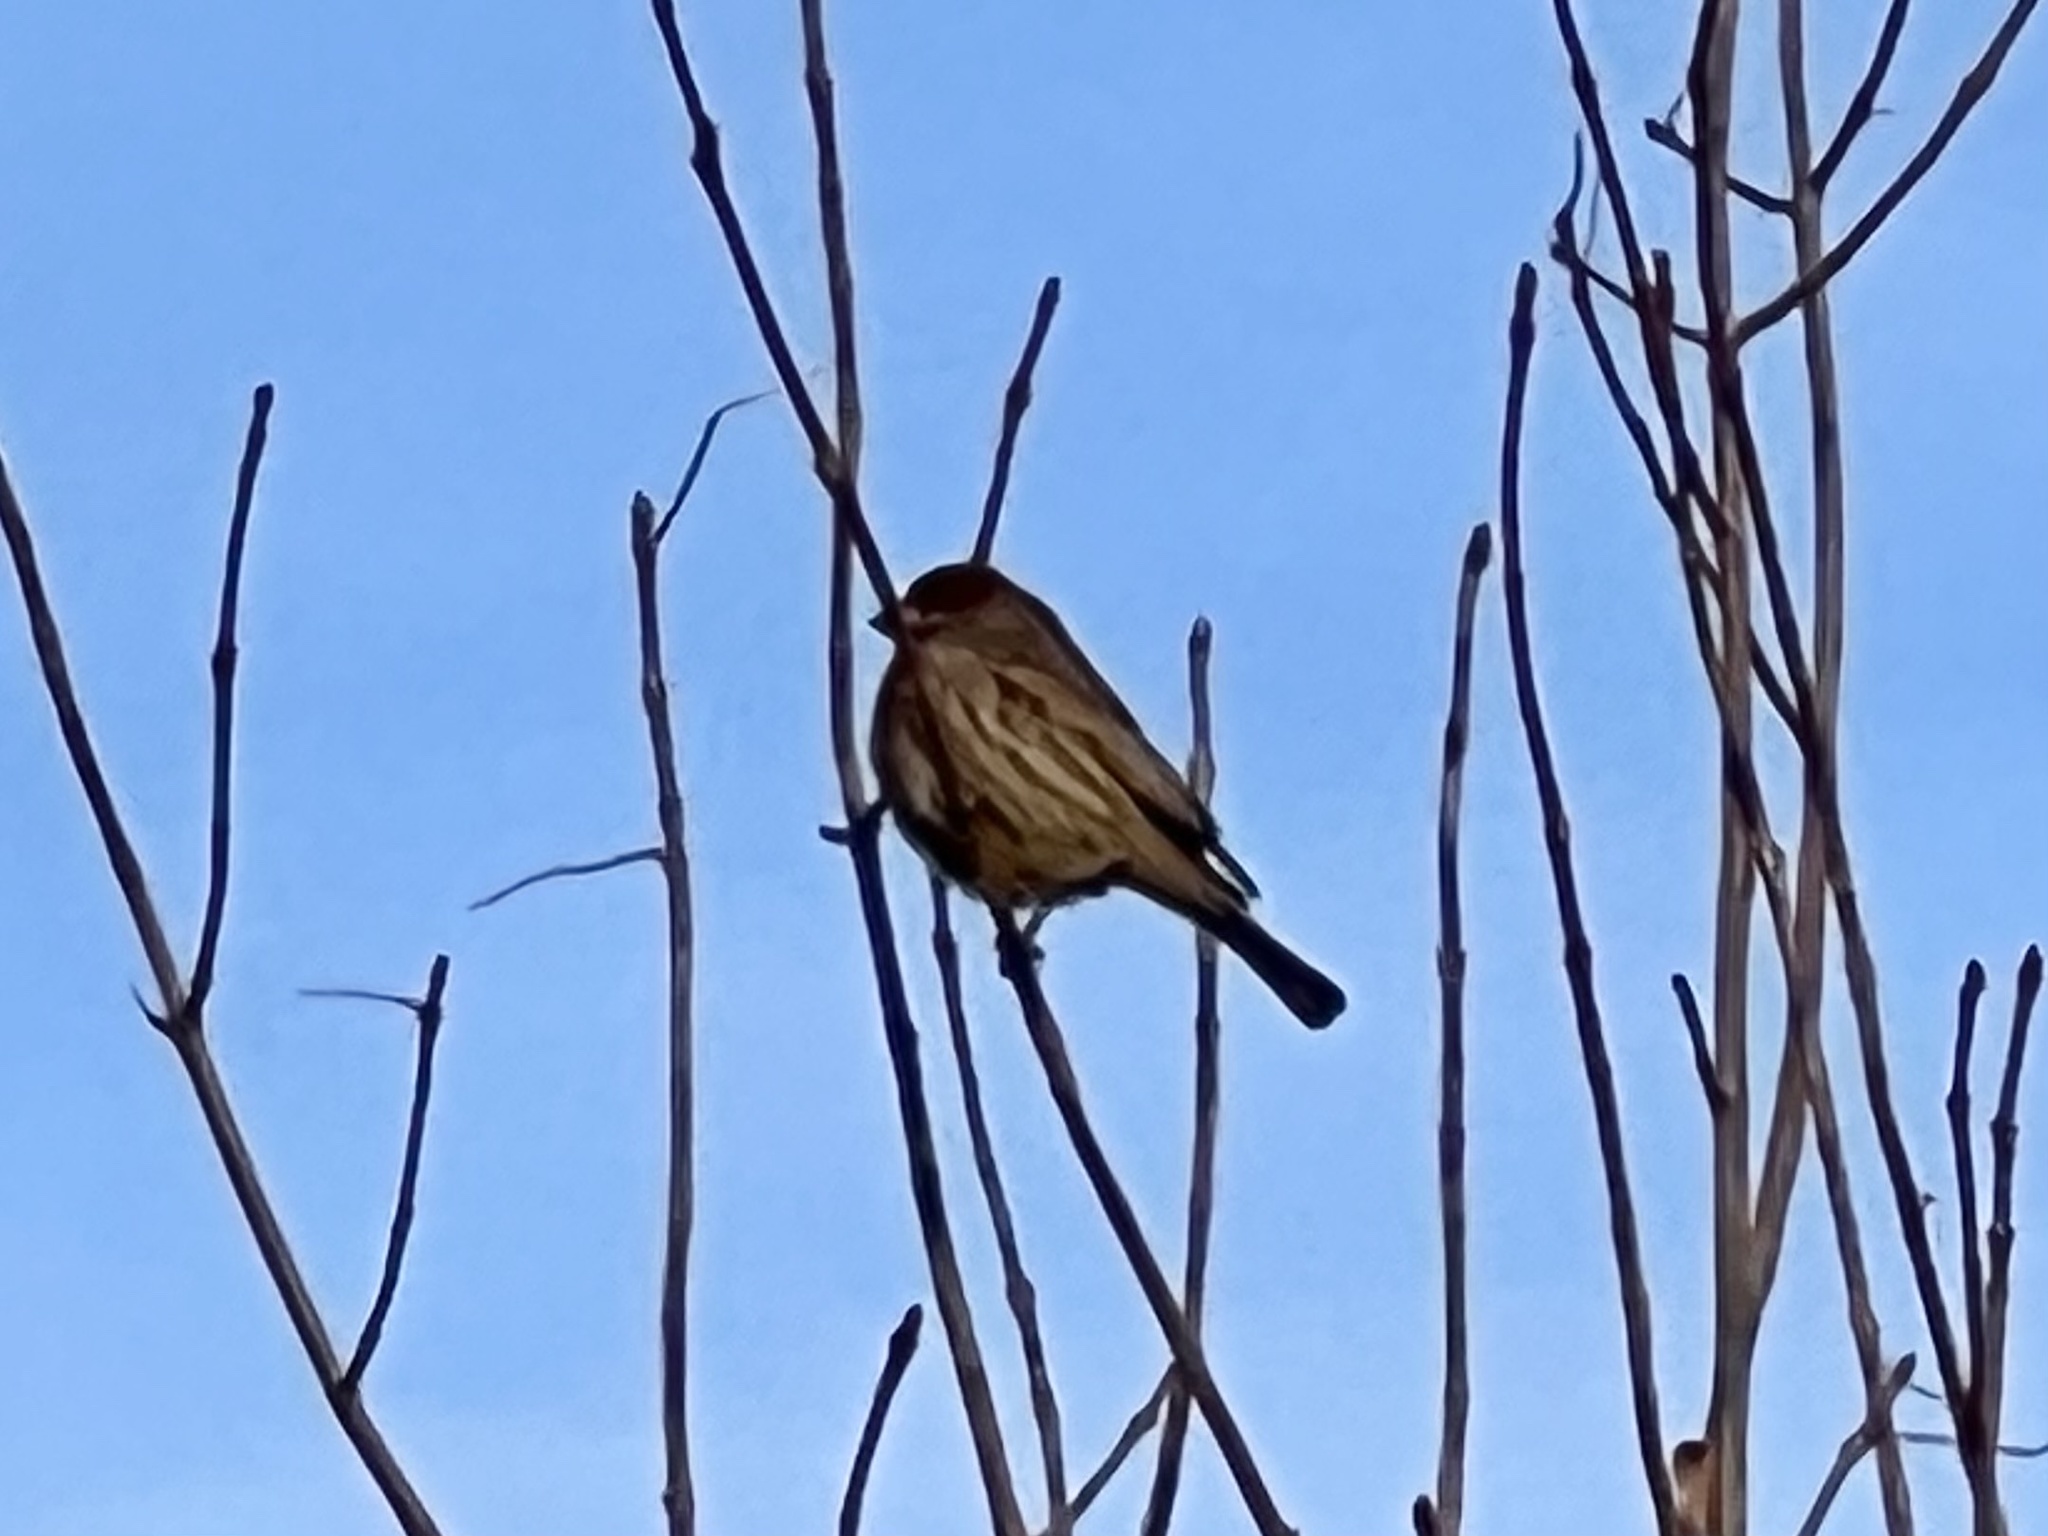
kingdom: Animalia
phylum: Chordata
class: Aves
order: Passeriformes
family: Fringillidae
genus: Haemorhous
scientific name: Haemorhous mexicanus
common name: House finch
